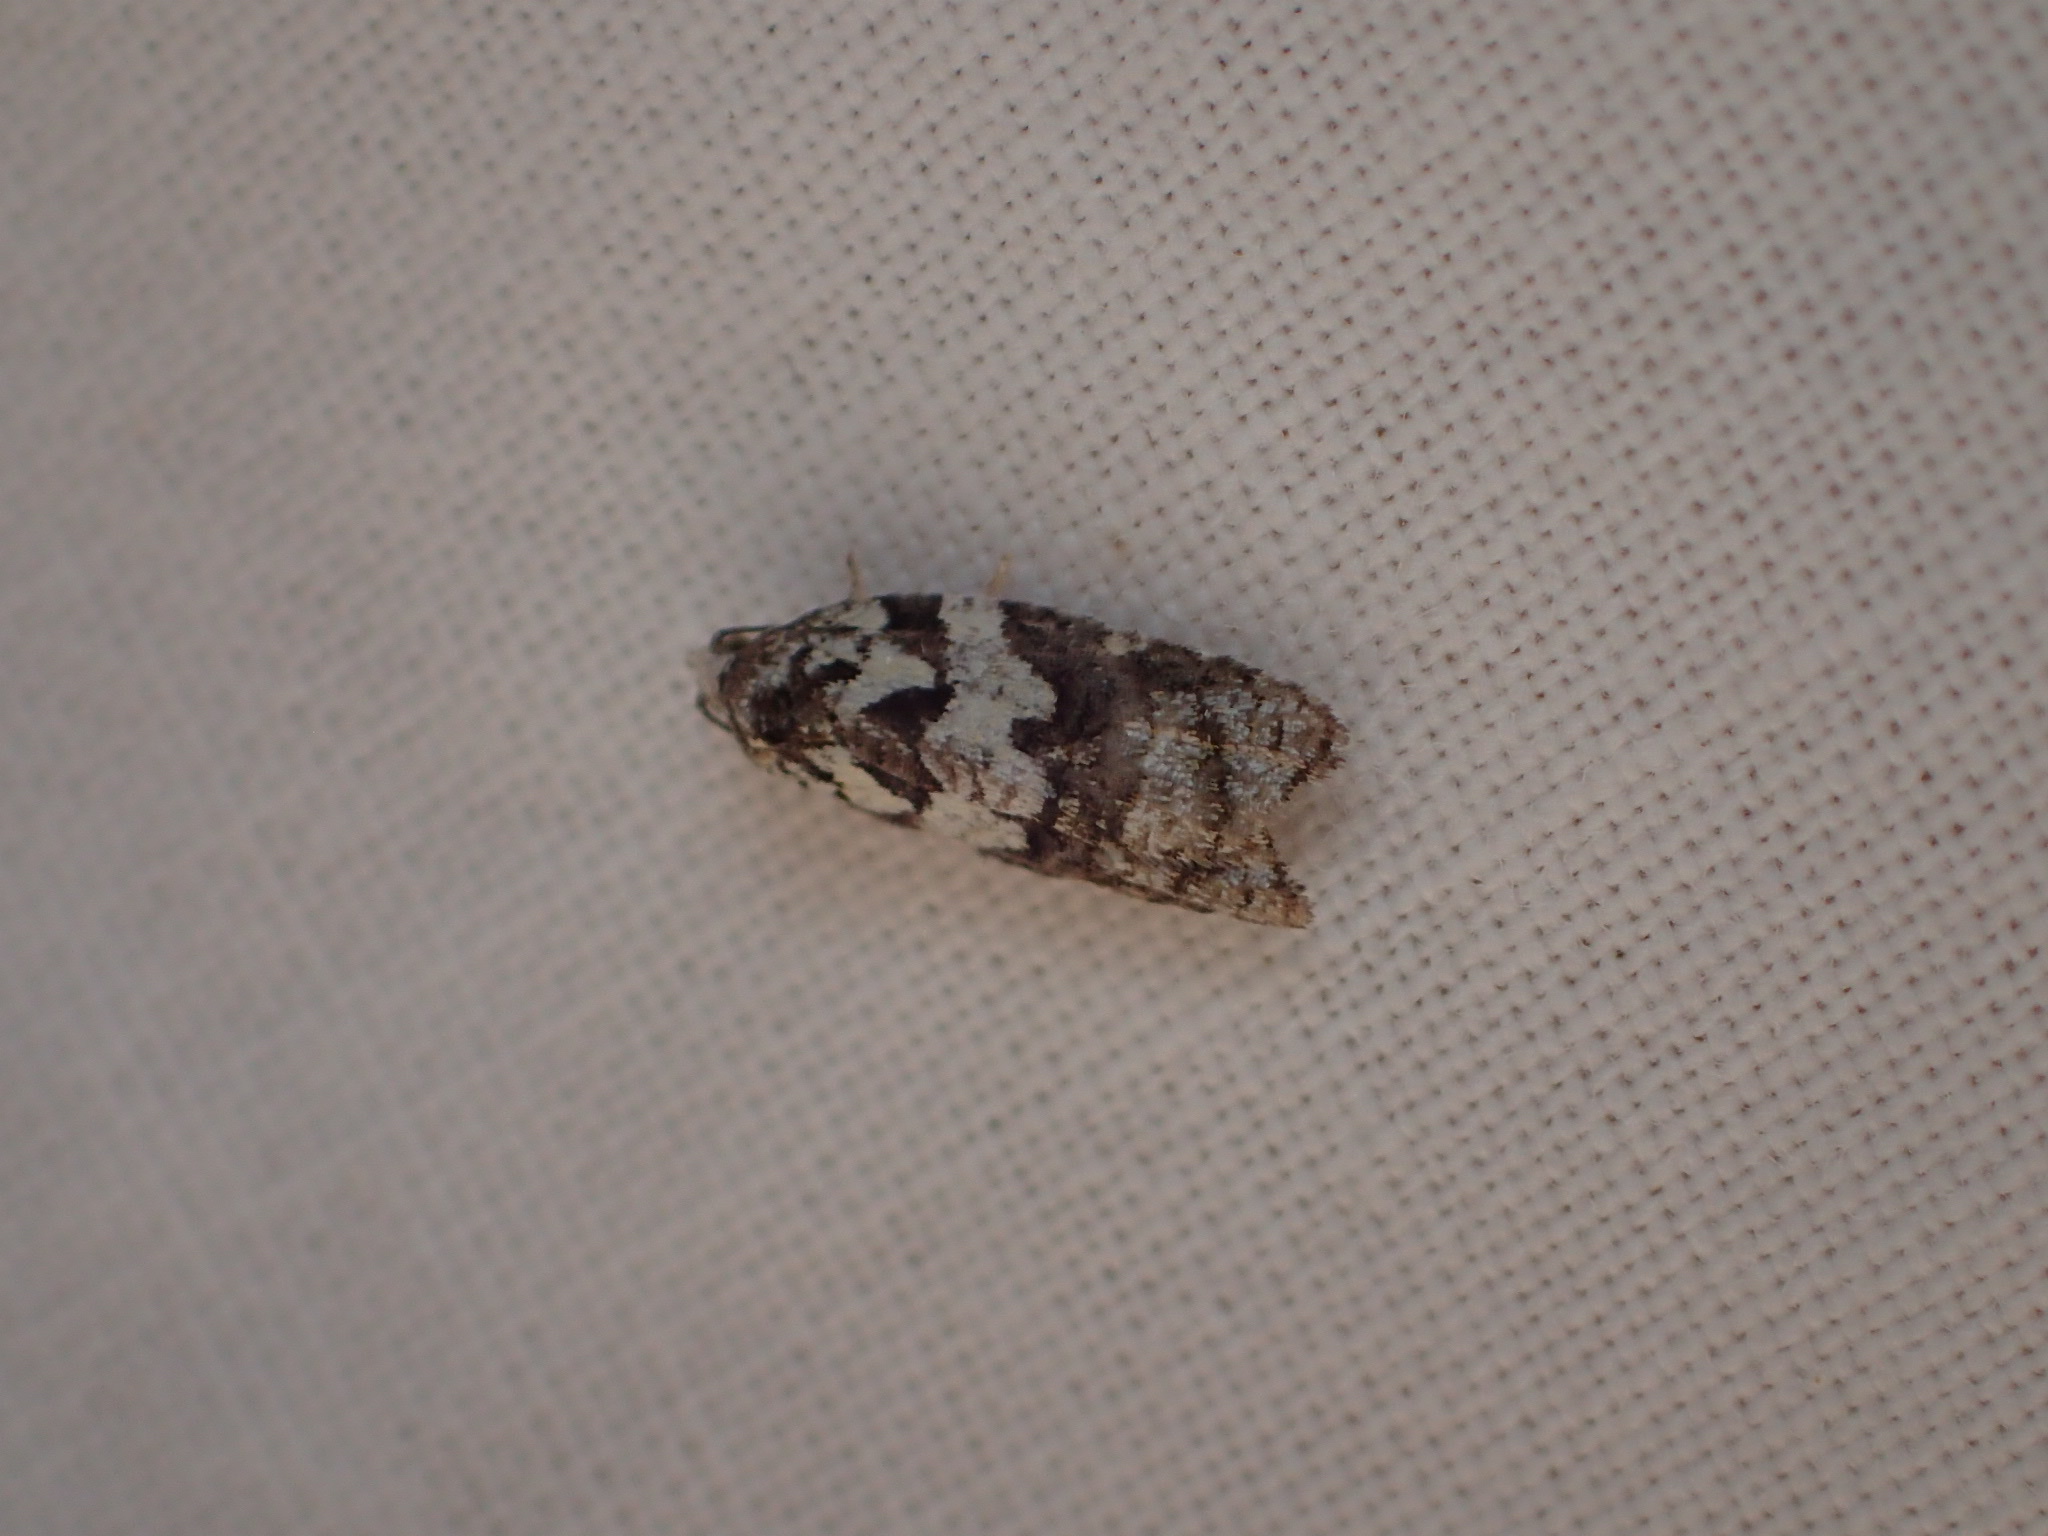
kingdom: Animalia
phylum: Arthropoda
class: Insecta
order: Lepidoptera
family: Tortricidae
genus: Acleris
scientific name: Acleris variana
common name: Eastern black-headed budworm moth
